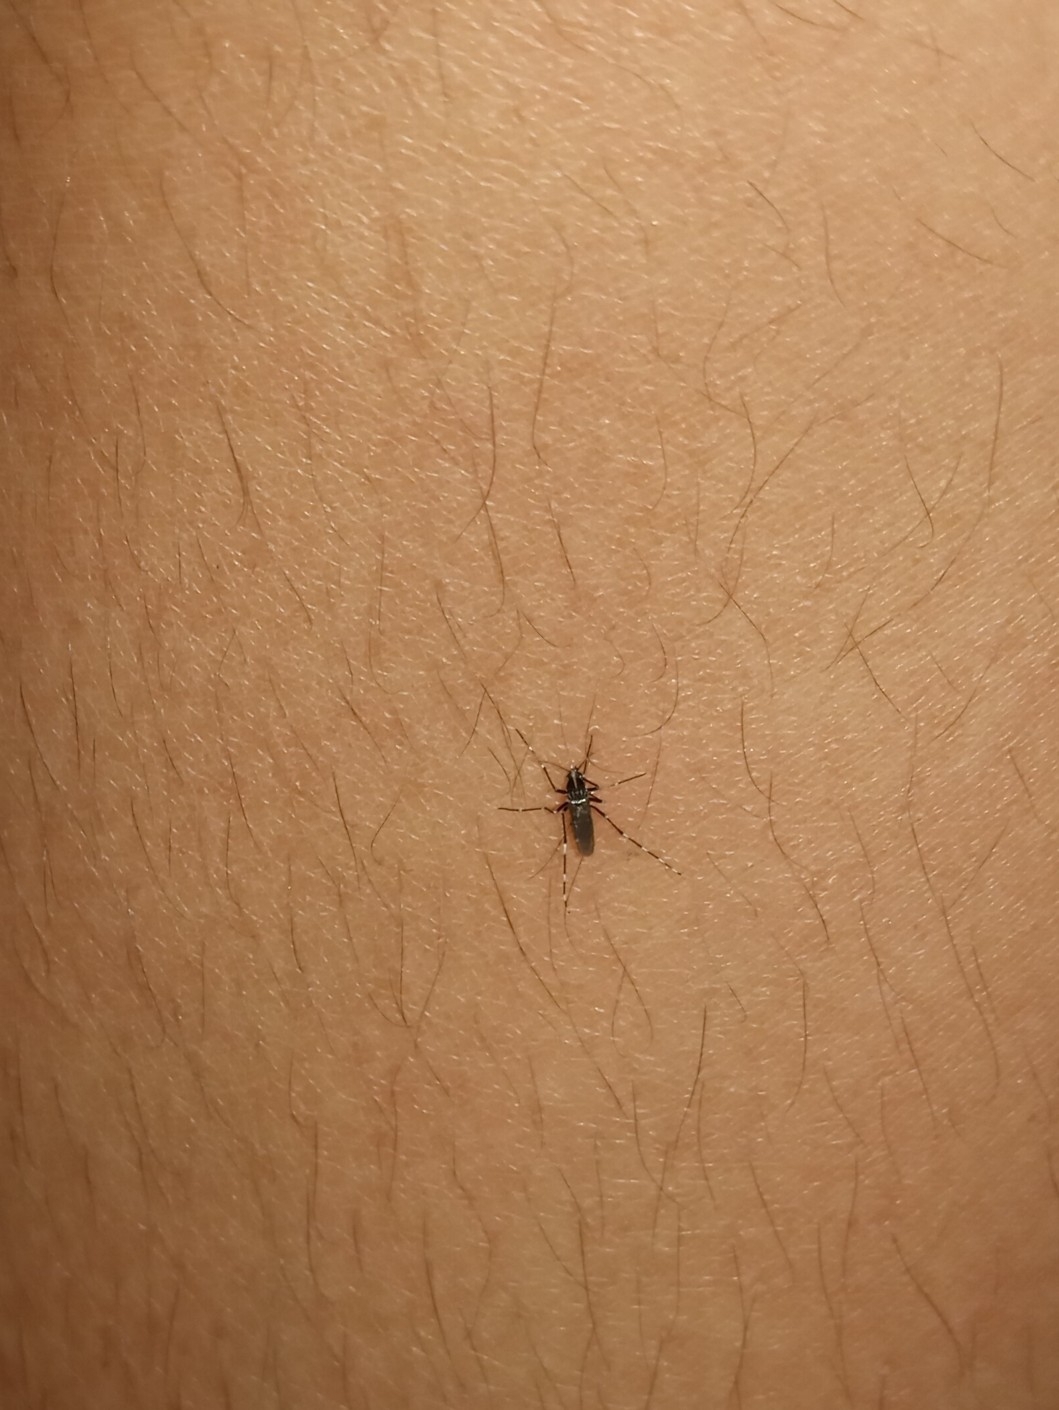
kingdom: Animalia
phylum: Arthropoda
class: Insecta
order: Diptera
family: Culicidae
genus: Aedes
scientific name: Aedes albopictus
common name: Tiger mosquito
